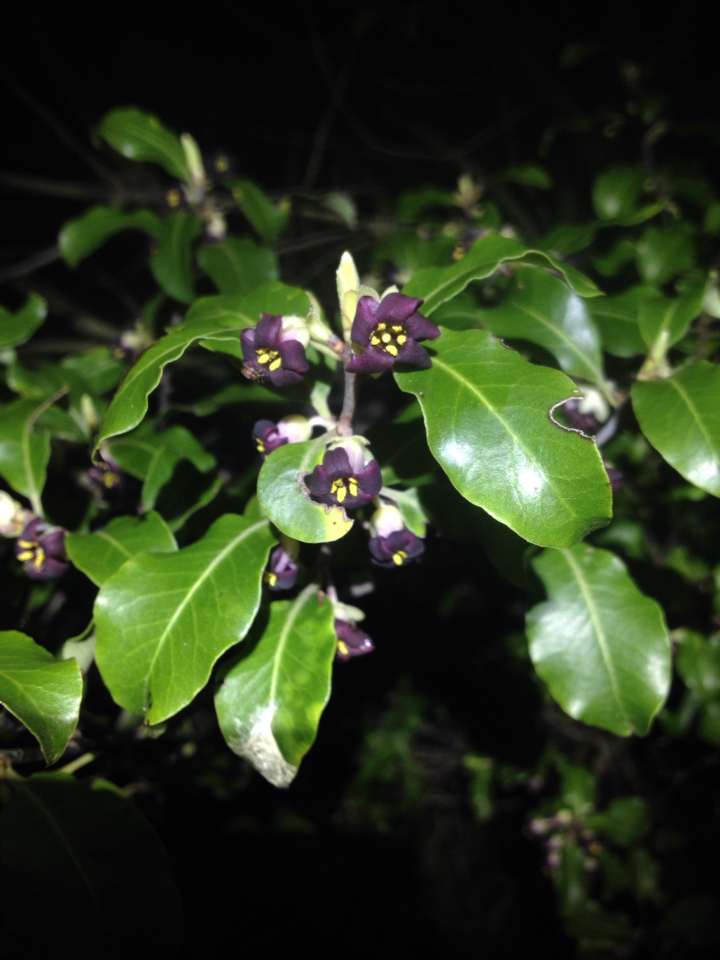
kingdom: Plantae
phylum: Tracheophyta
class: Magnoliopsida
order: Apiales
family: Pittosporaceae
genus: Pittosporum
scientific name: Pittosporum tenuifolium
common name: Kohuhu
